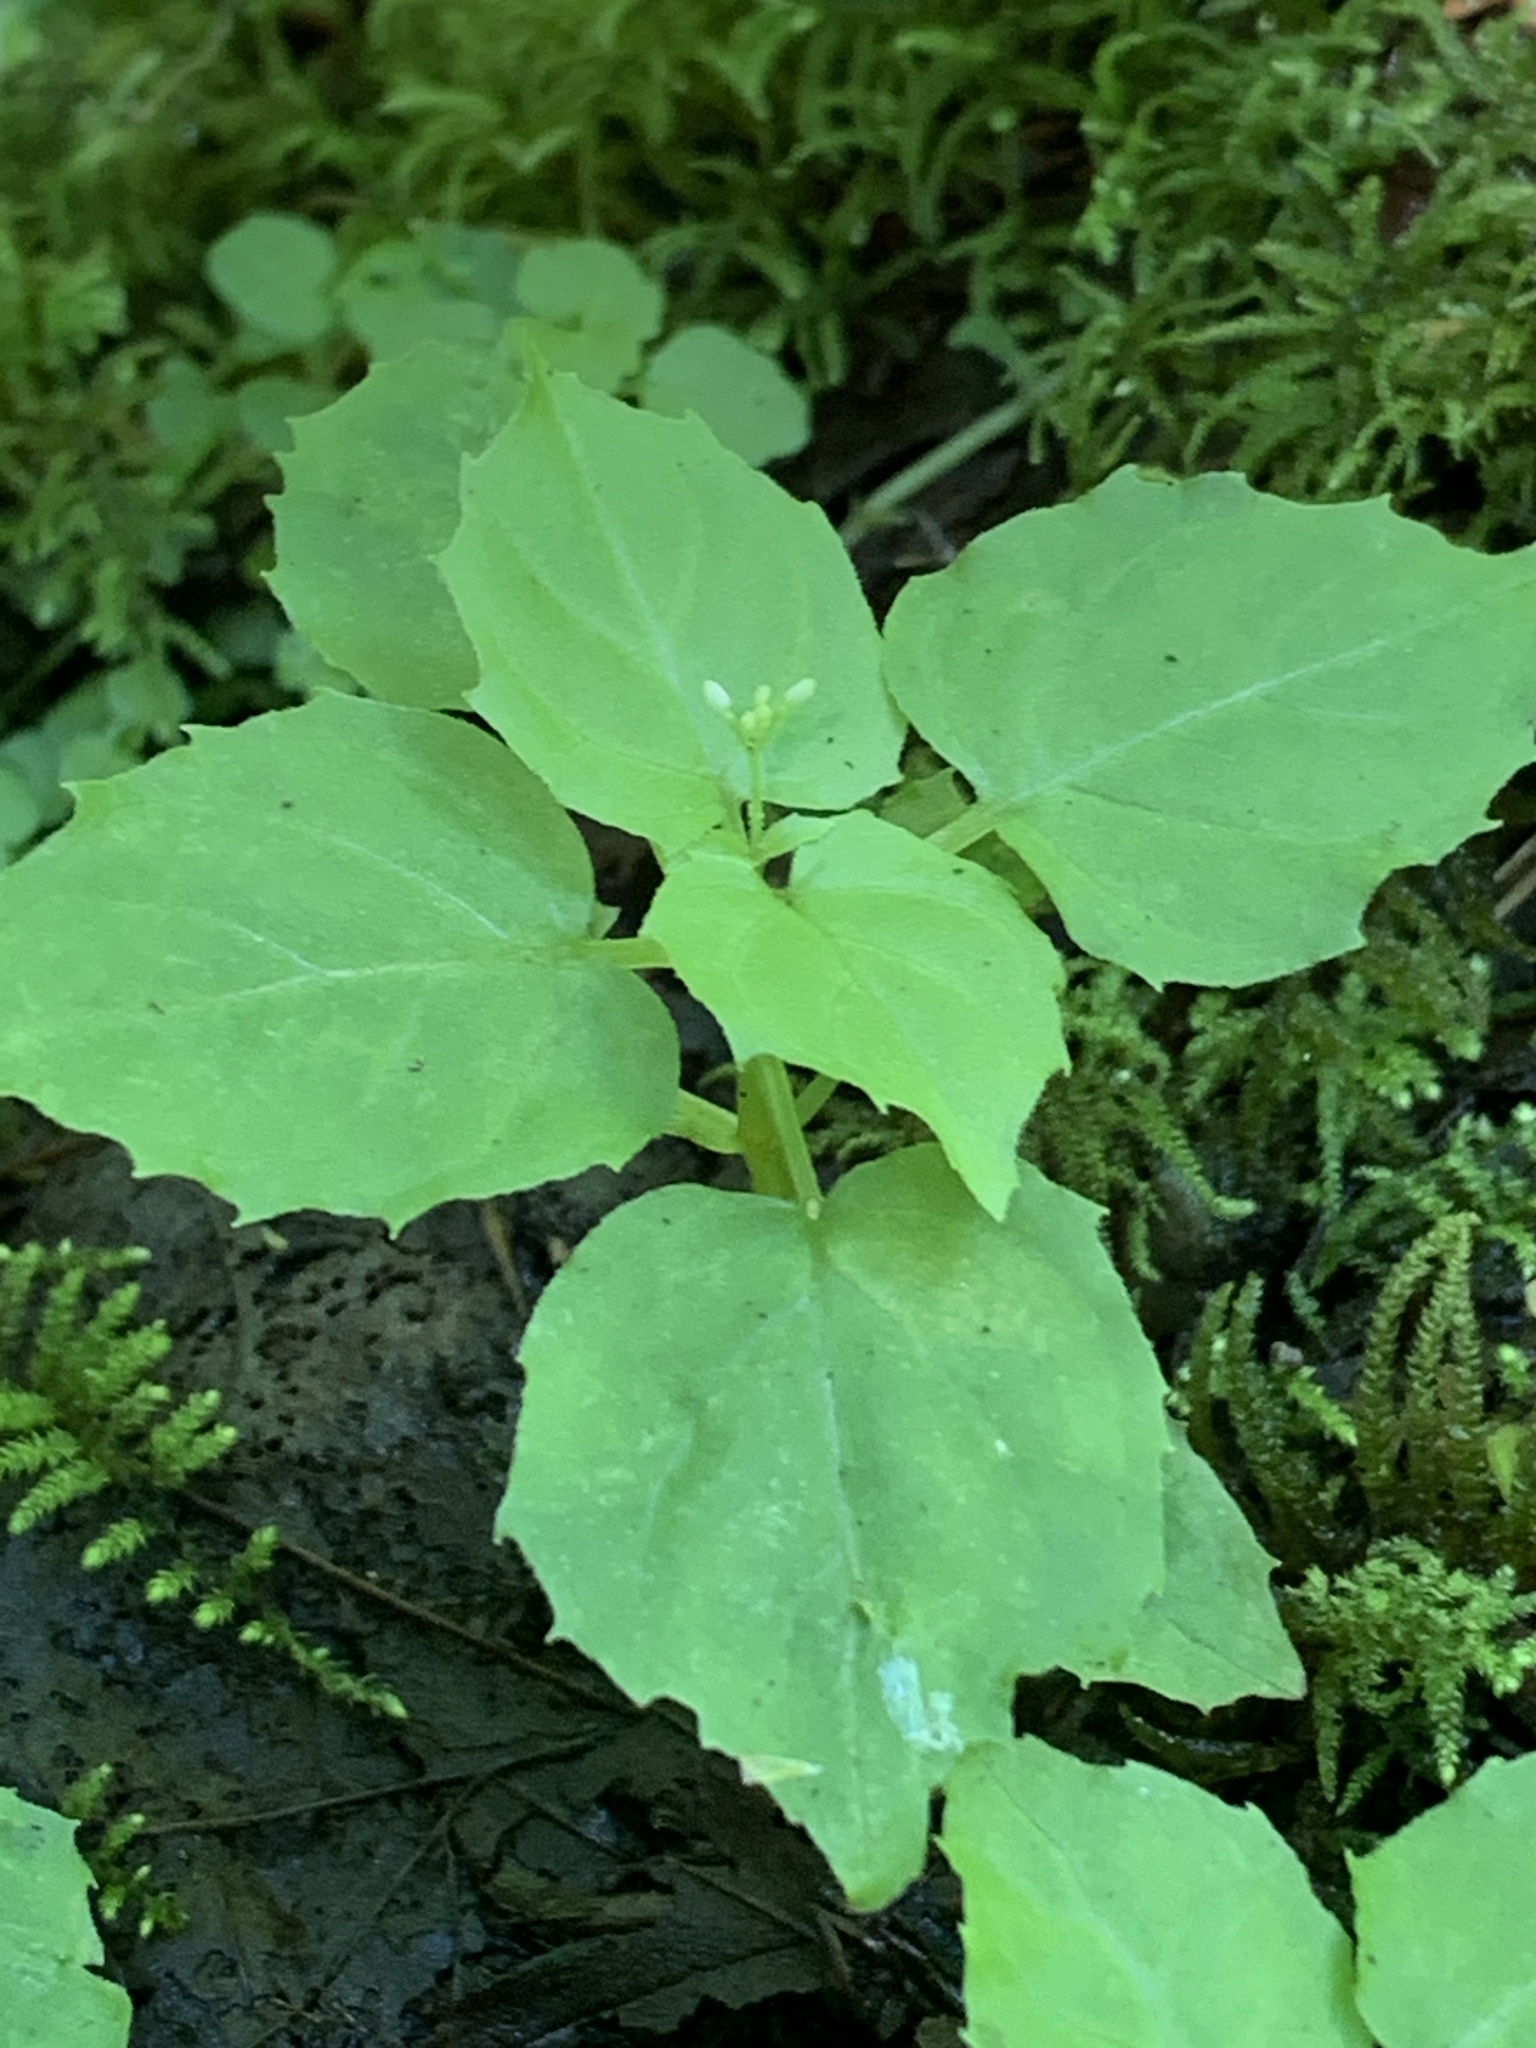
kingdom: Plantae
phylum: Tracheophyta
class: Magnoliopsida
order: Myrtales
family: Onagraceae
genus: Circaea
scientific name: Circaea alpina
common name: Alpine enchanter's-nightshade
